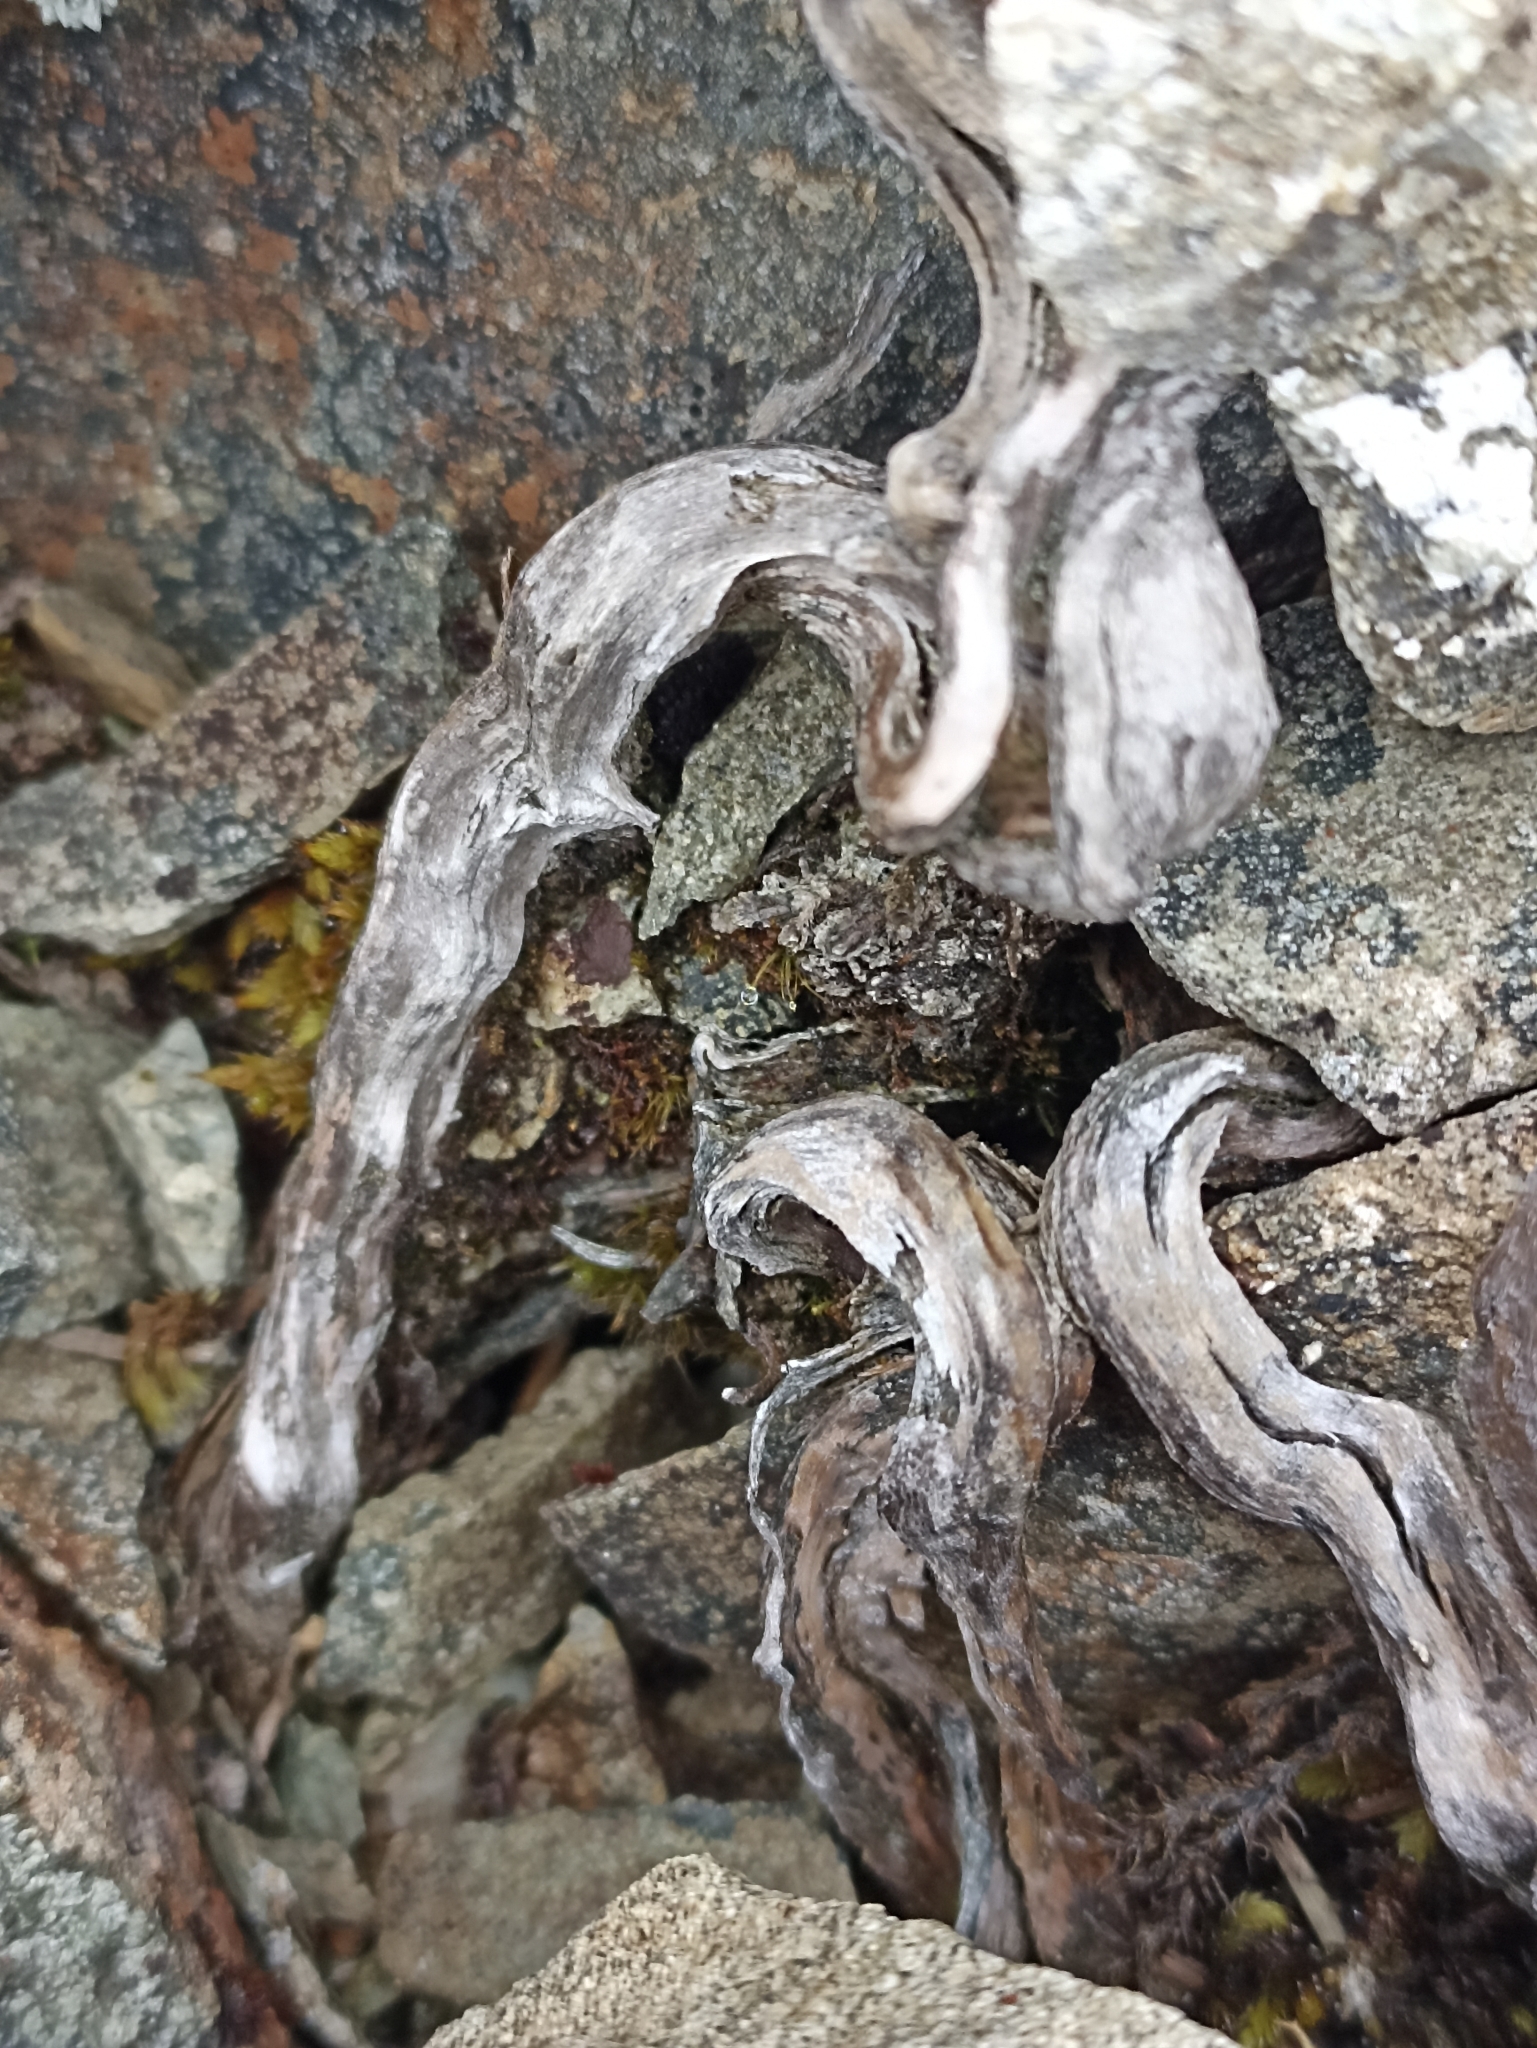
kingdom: Plantae
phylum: Tracheophyta
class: Magnoliopsida
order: Asterales
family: Asteraceae
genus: Raoulia
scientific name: Raoulia bryoides
